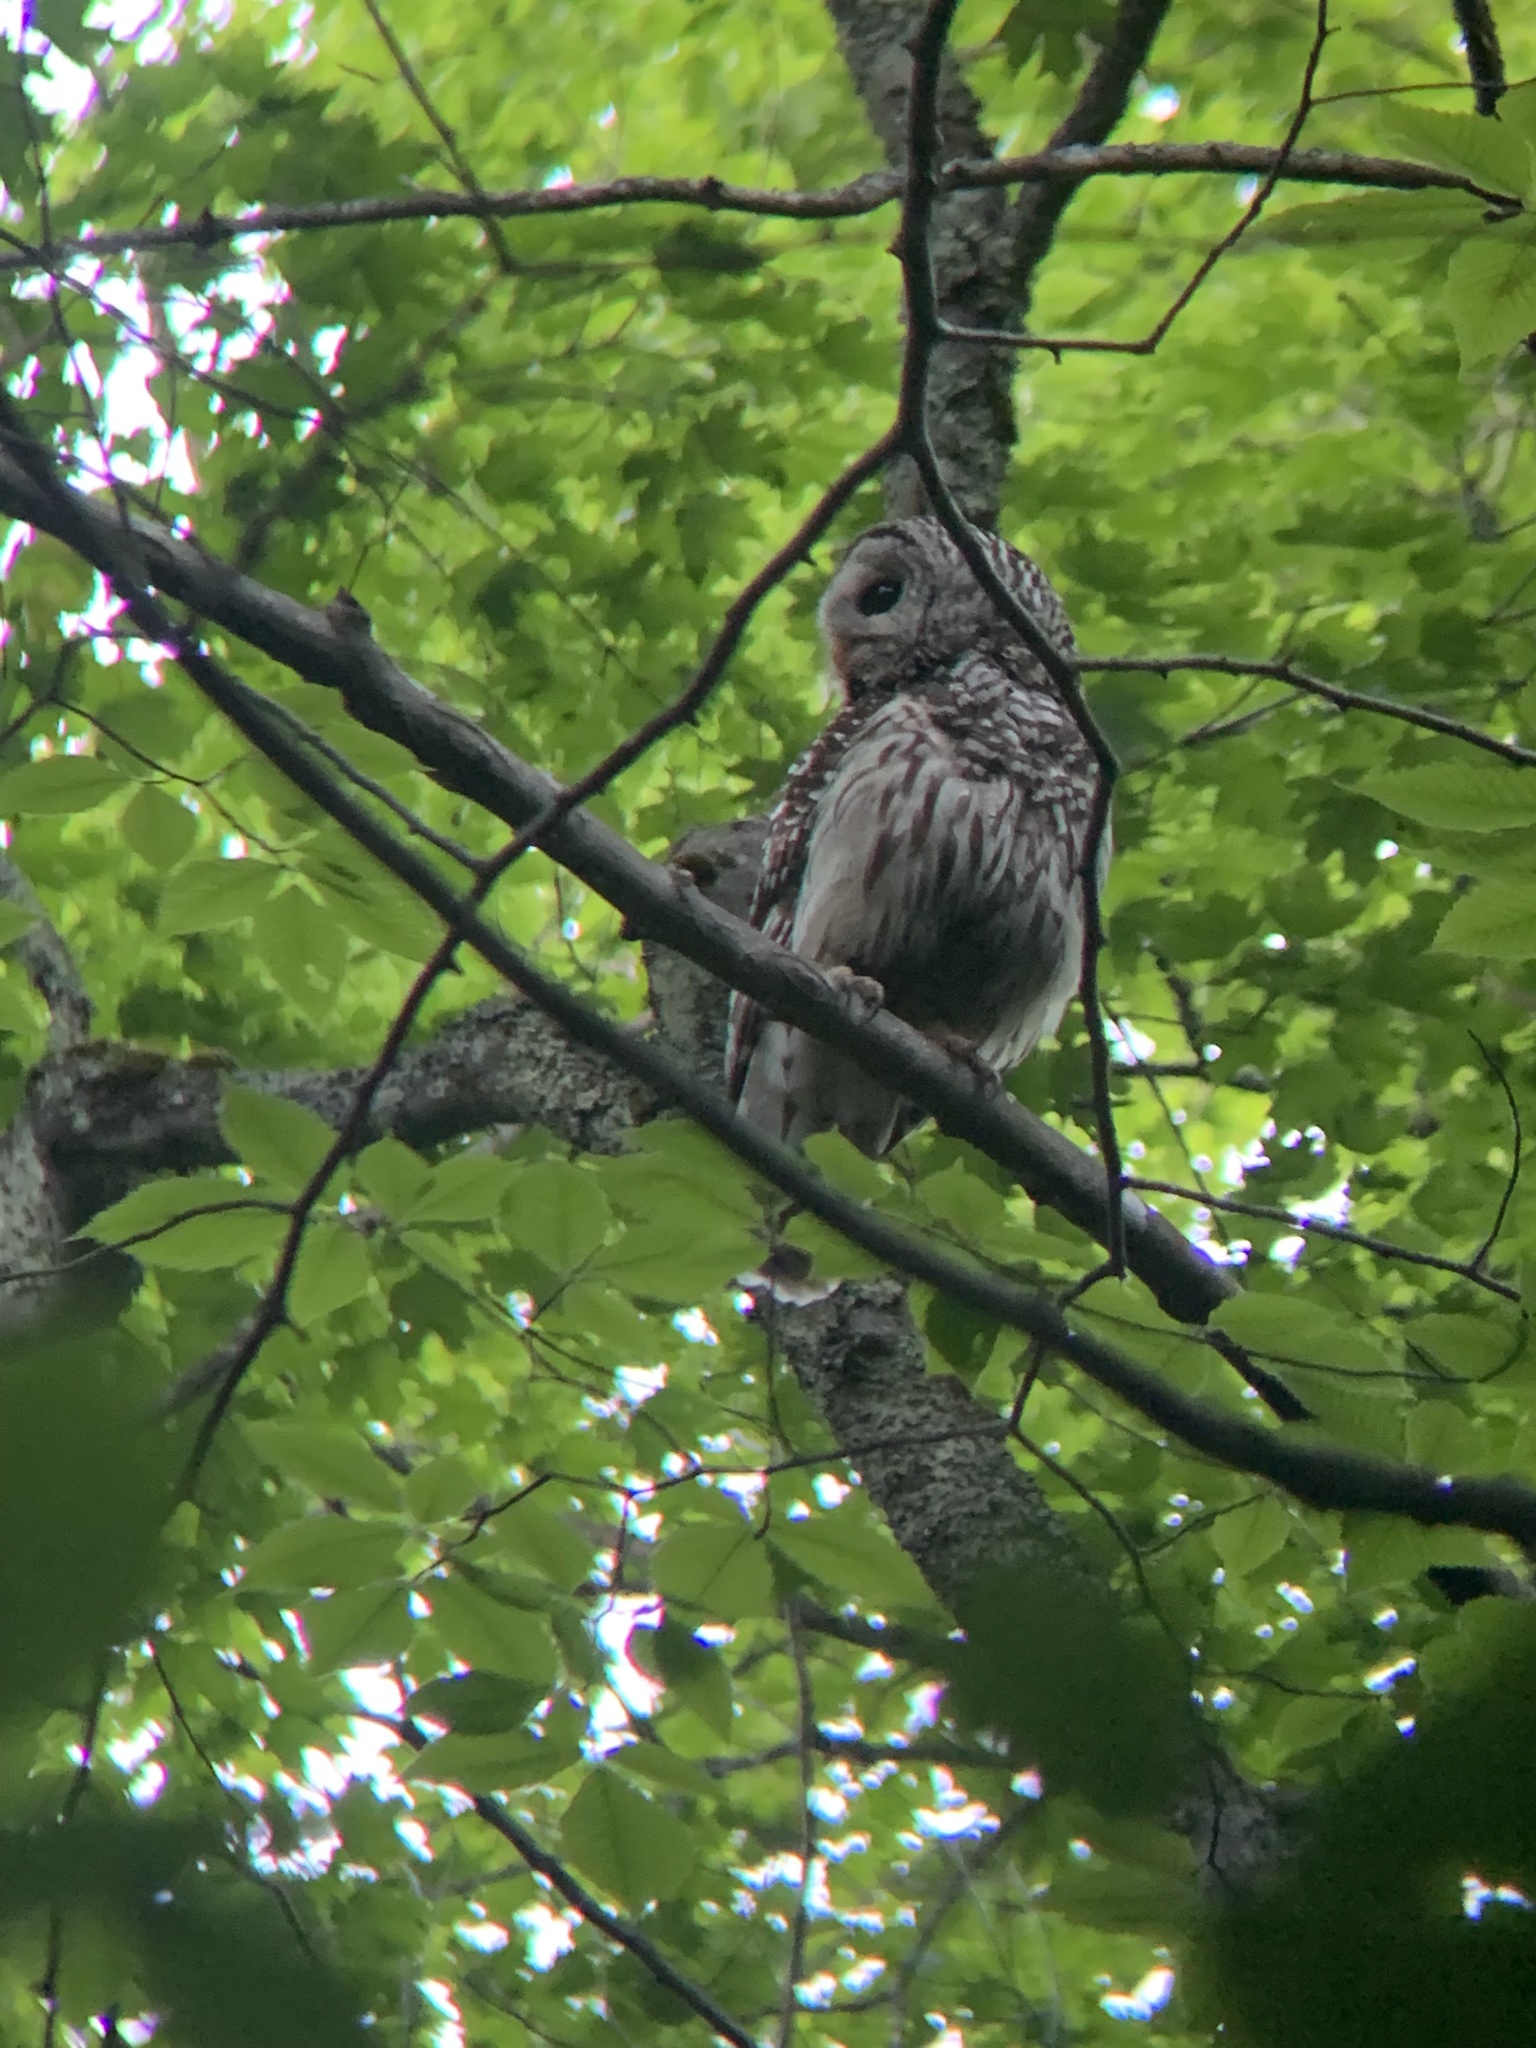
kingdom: Animalia
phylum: Chordata
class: Aves
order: Strigiformes
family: Strigidae
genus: Strix
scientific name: Strix varia
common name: Barred owl
